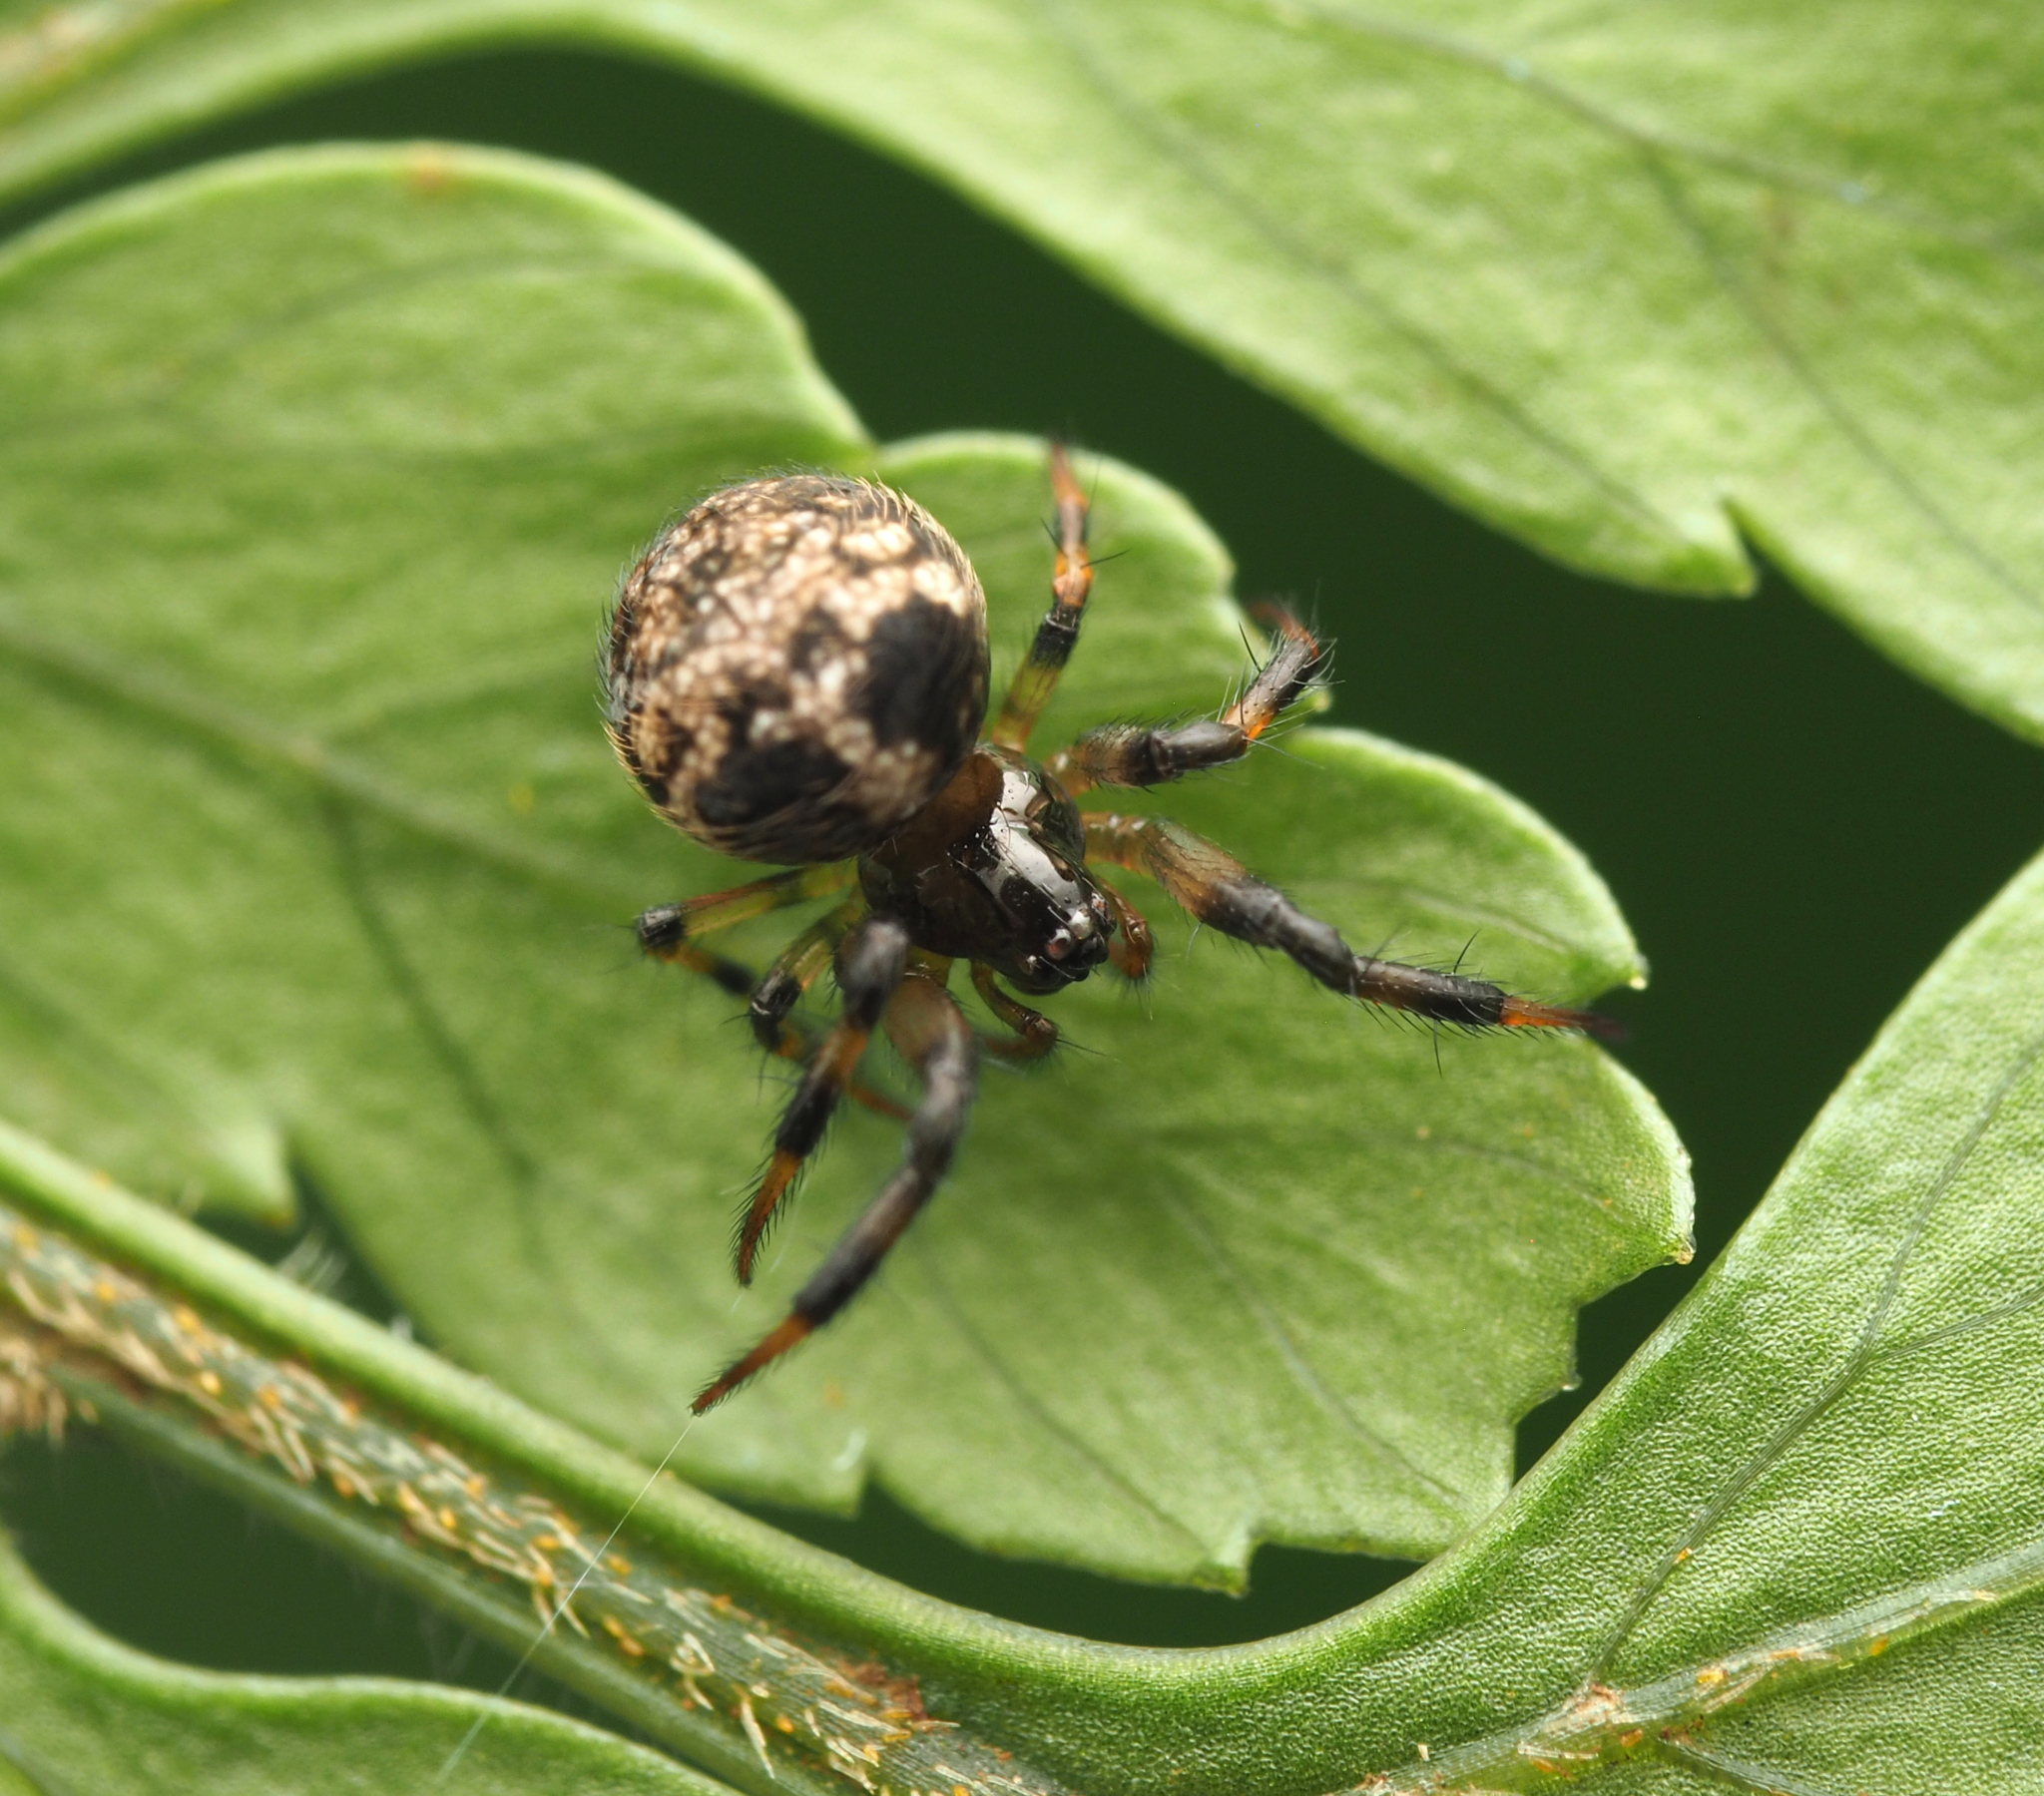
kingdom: Animalia
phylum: Arthropoda
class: Arachnida
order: Araneae
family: Theridiosomatidae
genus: Baalzebub
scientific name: Baalzebub brauni
